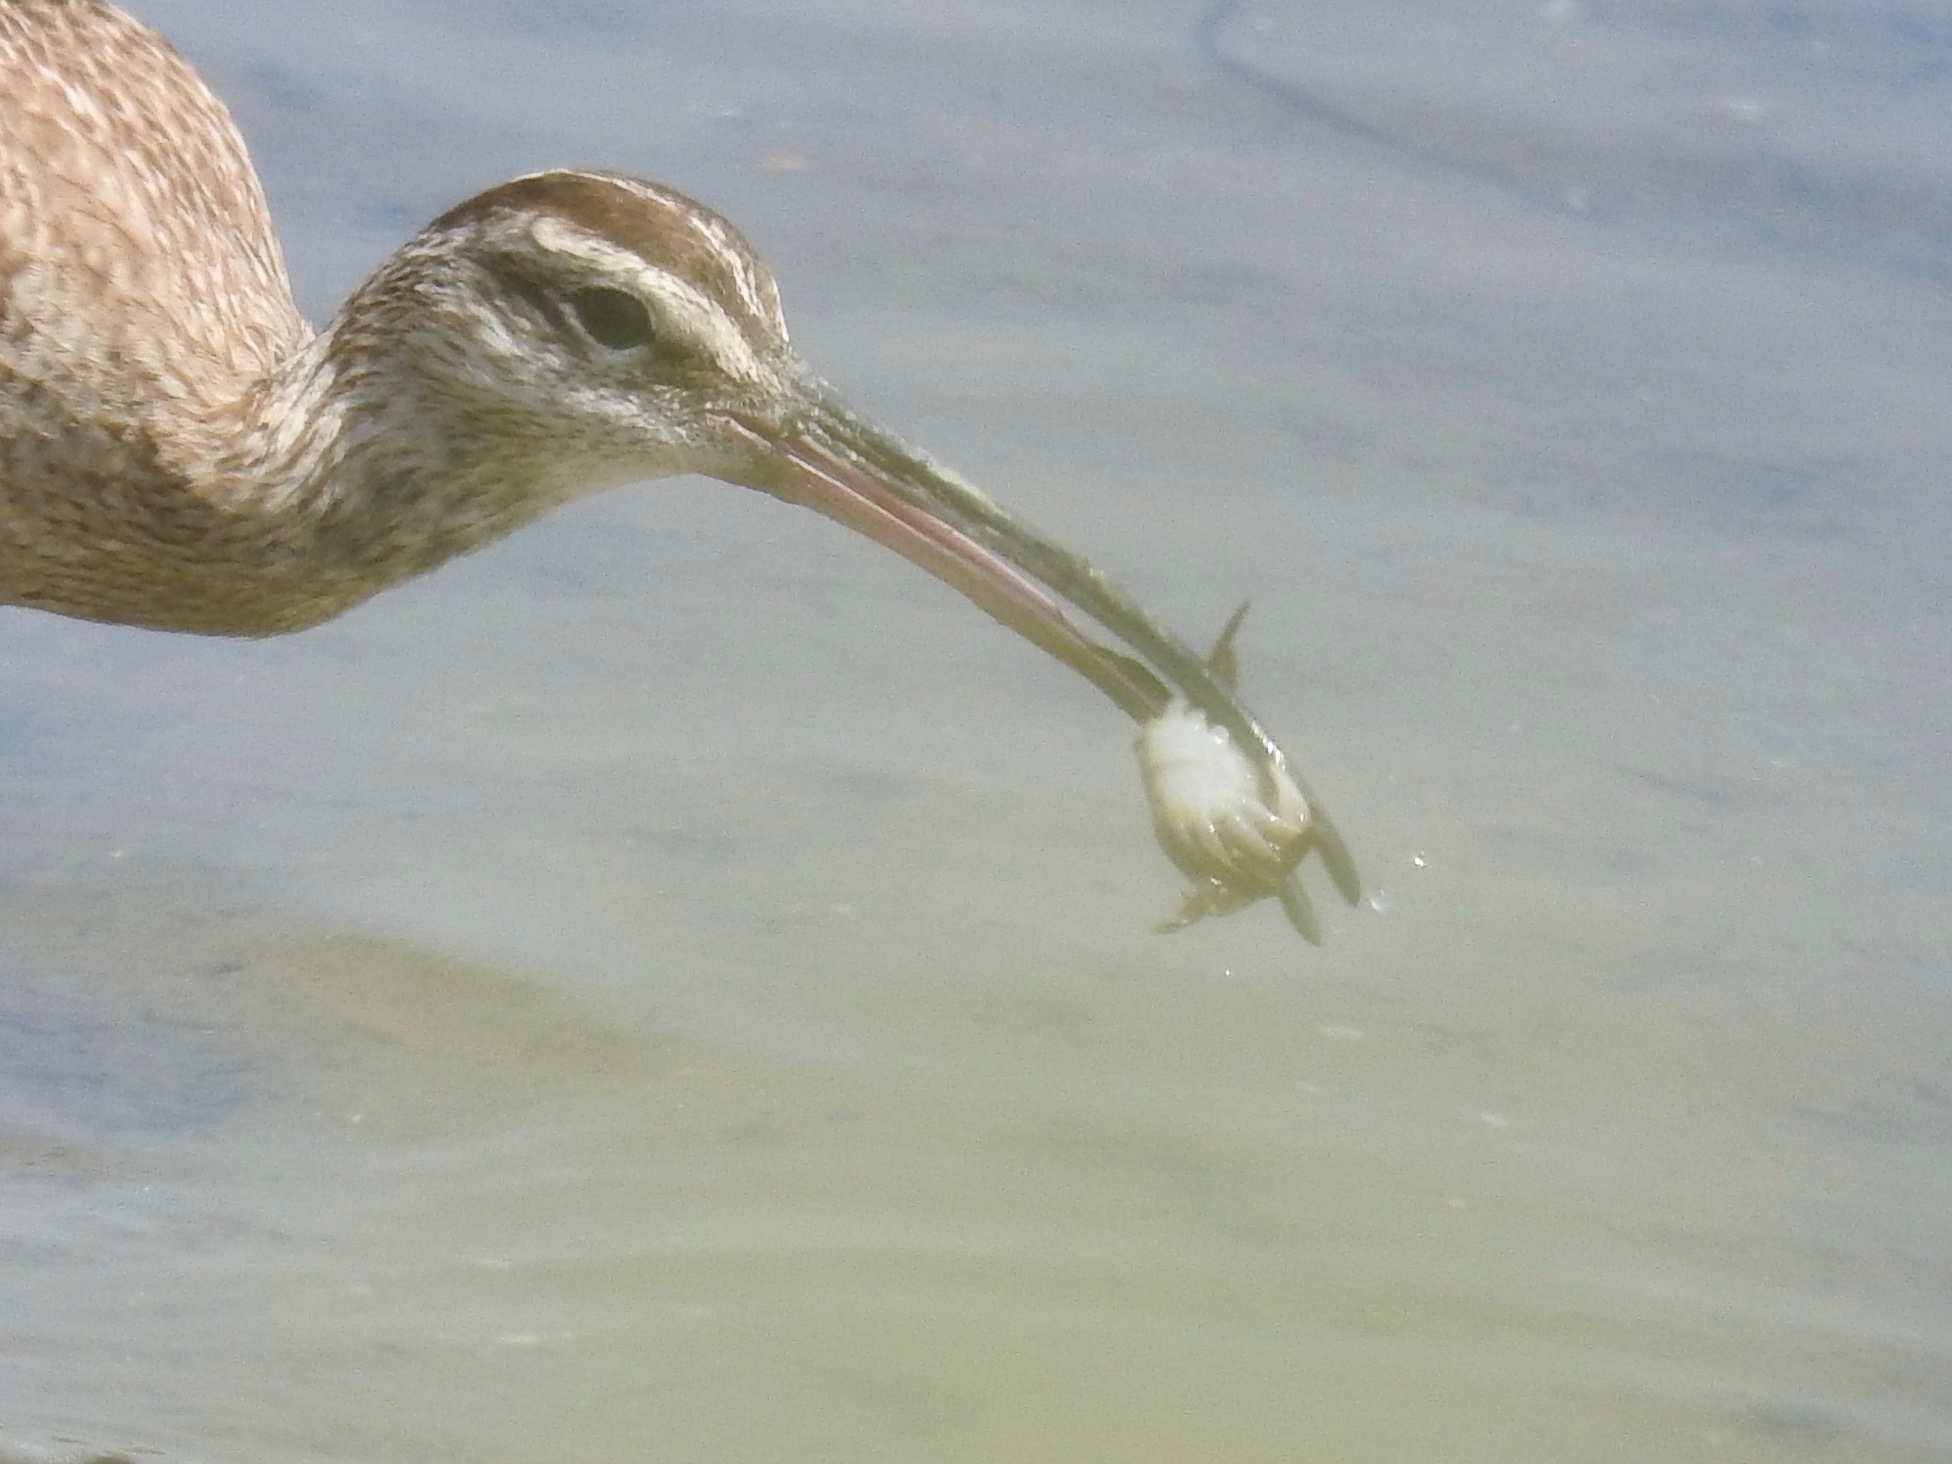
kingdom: Animalia
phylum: Arthropoda
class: Malacostraca
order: Decapoda
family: Grapsidae
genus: Pachygrapsus
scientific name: Pachygrapsus crassipes
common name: Striped shore crab
